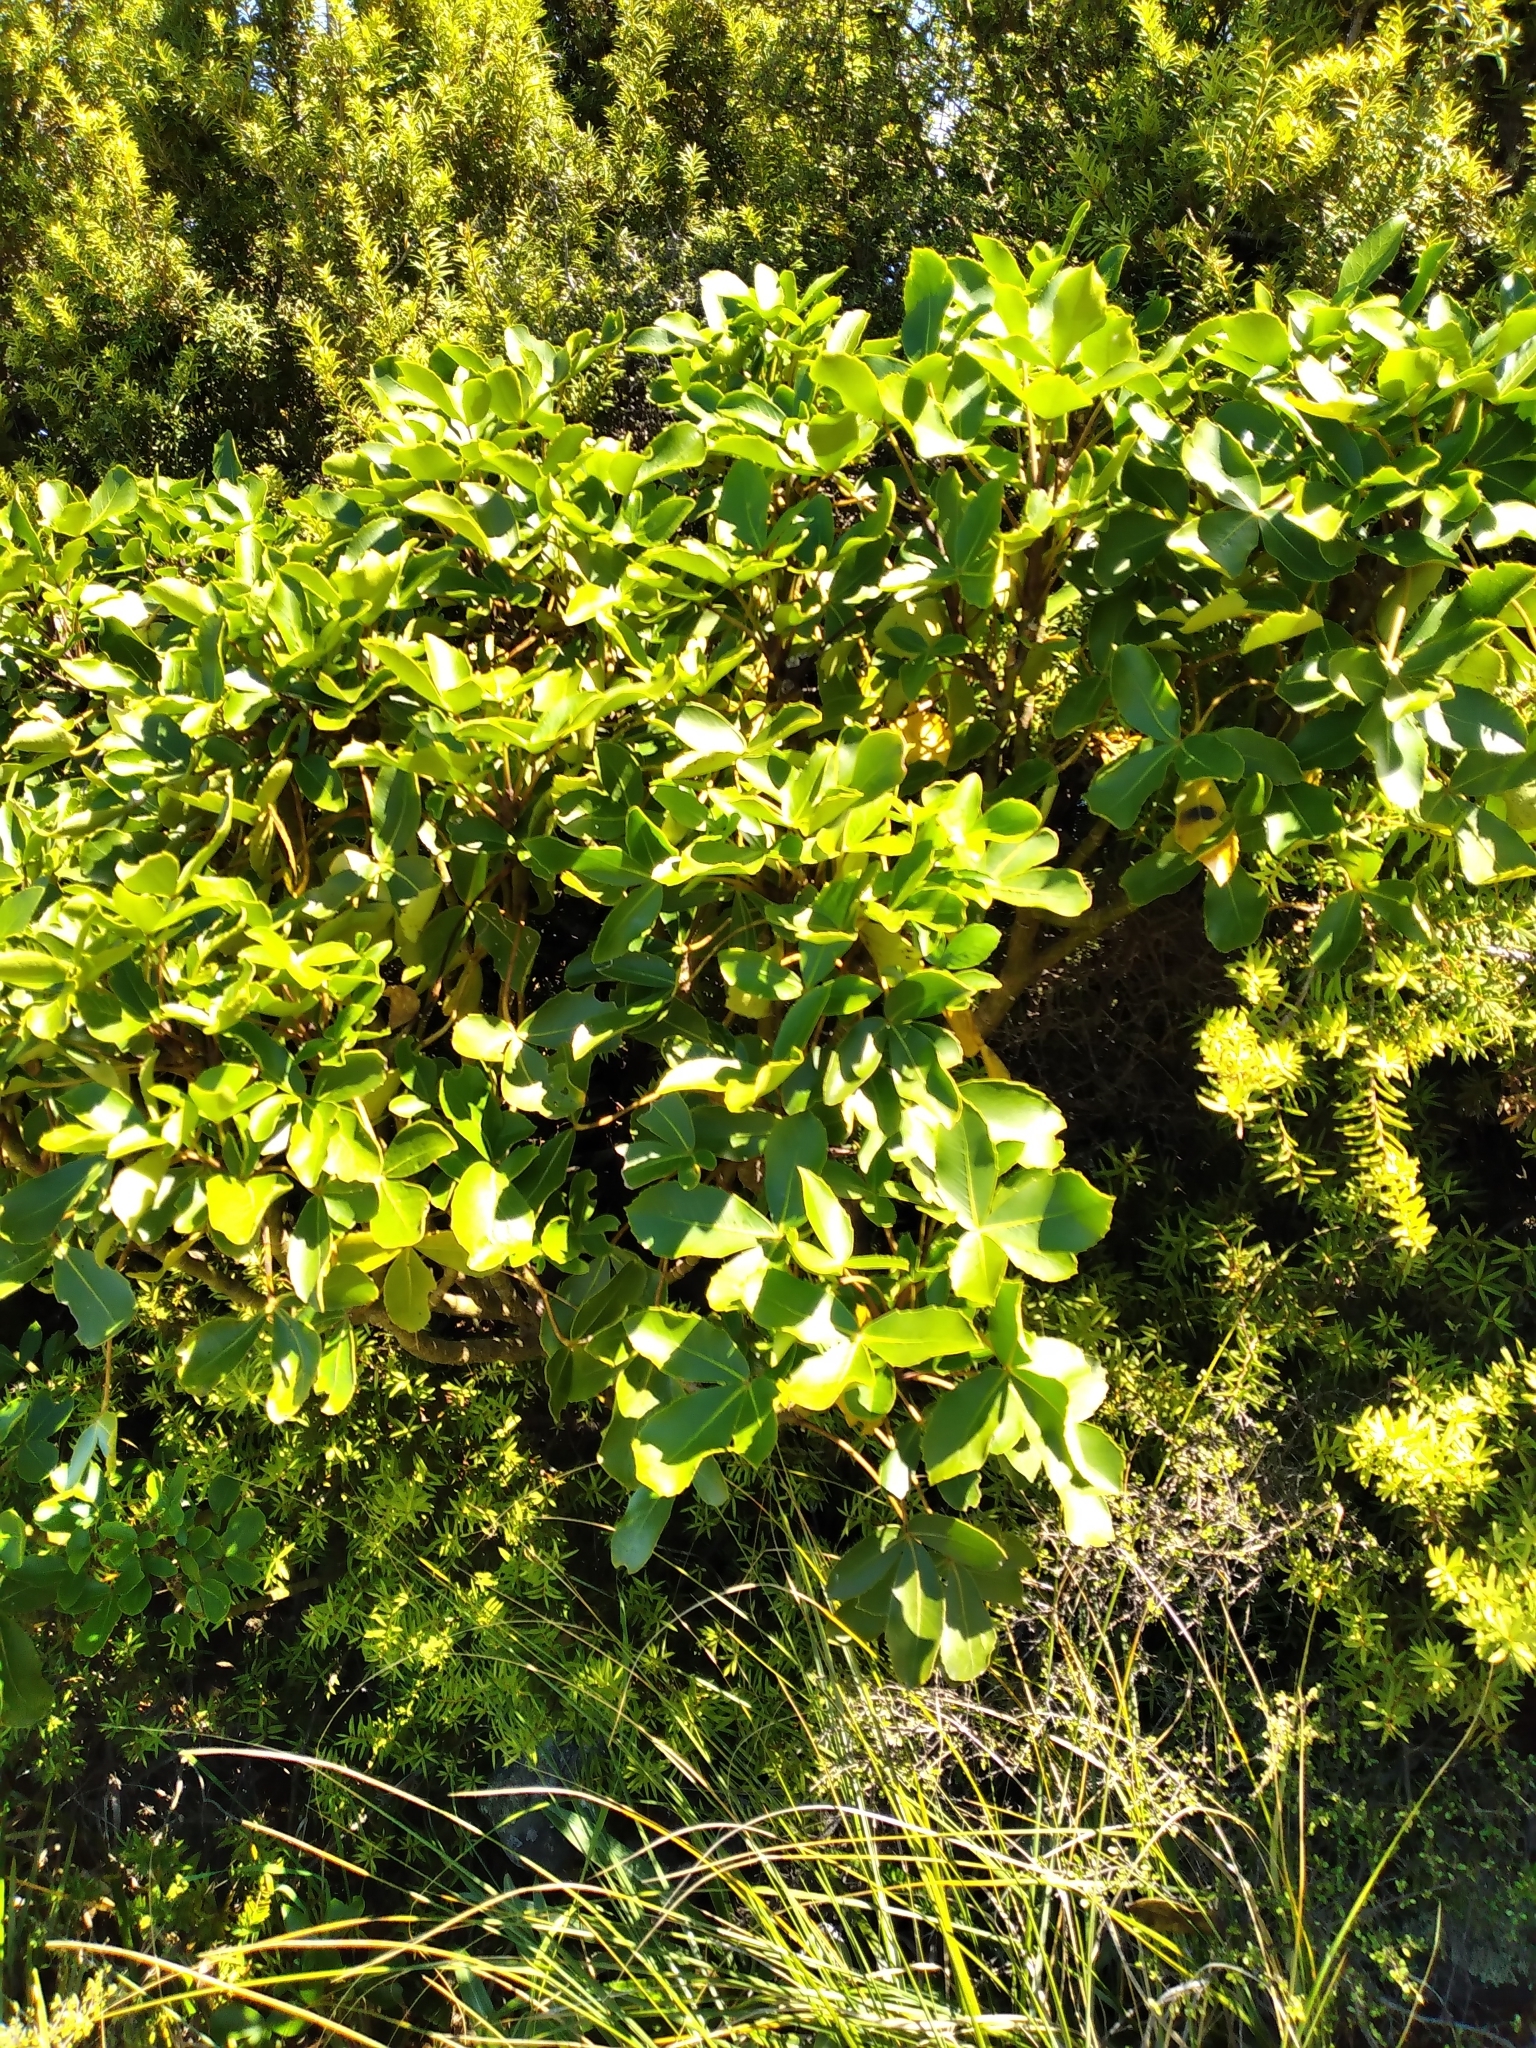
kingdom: Plantae
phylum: Tracheophyta
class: Magnoliopsida
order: Apiales
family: Araliaceae
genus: Neopanax
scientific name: Neopanax colensoi
